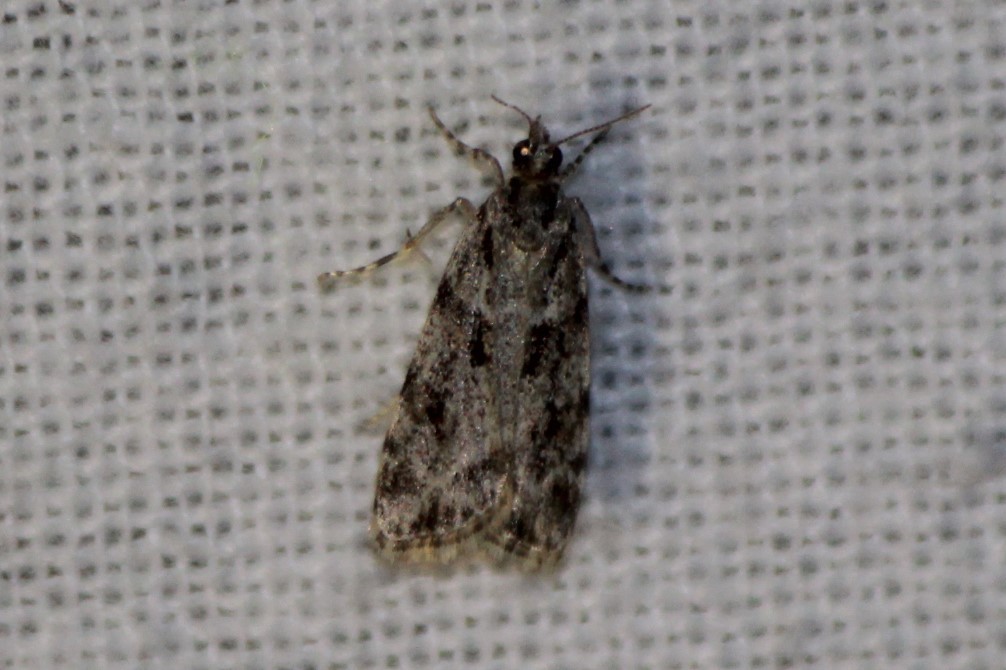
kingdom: Animalia
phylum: Arthropoda
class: Insecta
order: Lepidoptera
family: Crambidae
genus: Scoparia
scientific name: Scoparia biplagialis
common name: Double-striped scoparia moth
